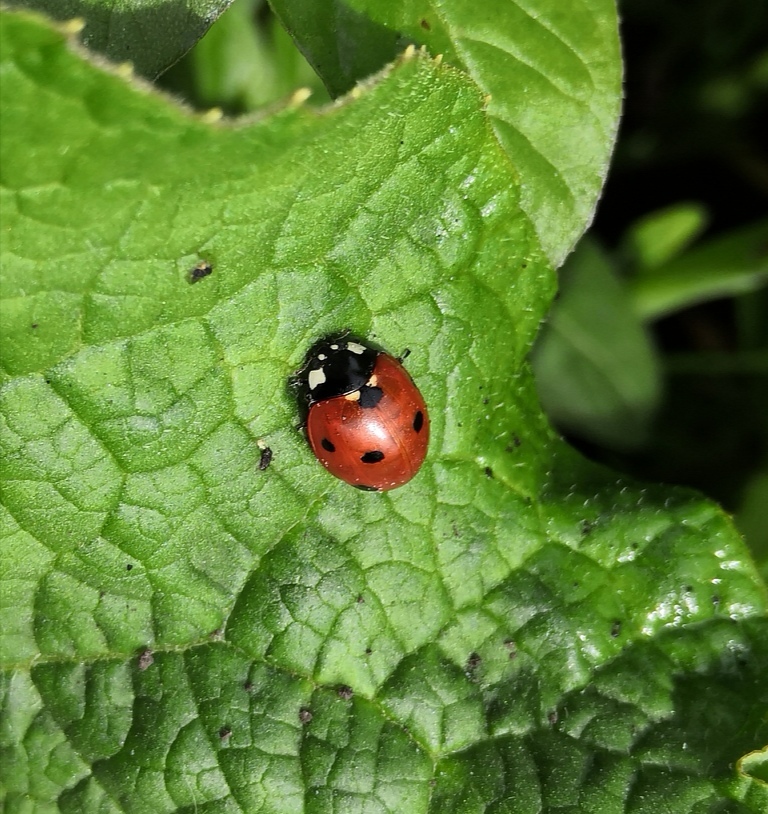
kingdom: Animalia
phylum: Arthropoda
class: Insecta
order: Coleoptera
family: Coccinellidae
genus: Coccinella
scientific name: Coccinella septempunctata
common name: Sevenspotted lady beetle
